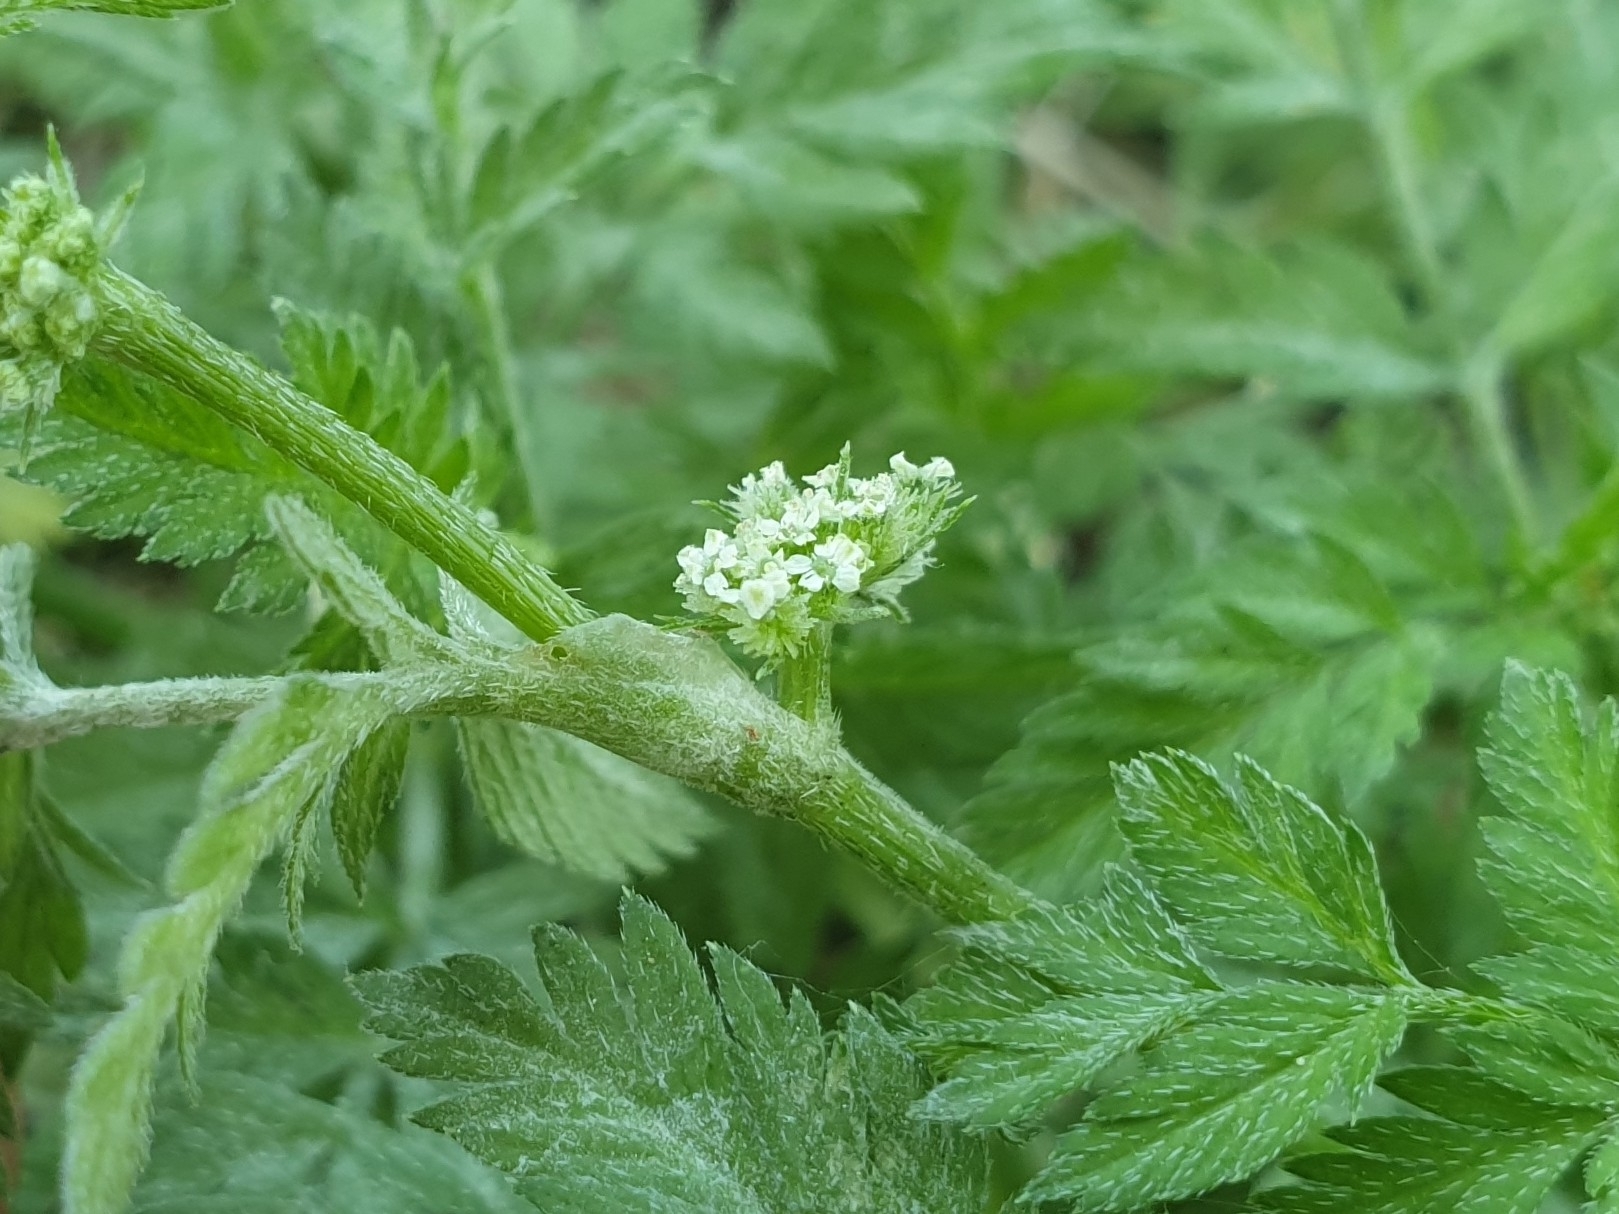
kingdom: Plantae
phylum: Tracheophyta
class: Magnoliopsida
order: Apiales
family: Apiaceae
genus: Torilis
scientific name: Torilis nodosa
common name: Knotted hedge-parsley
